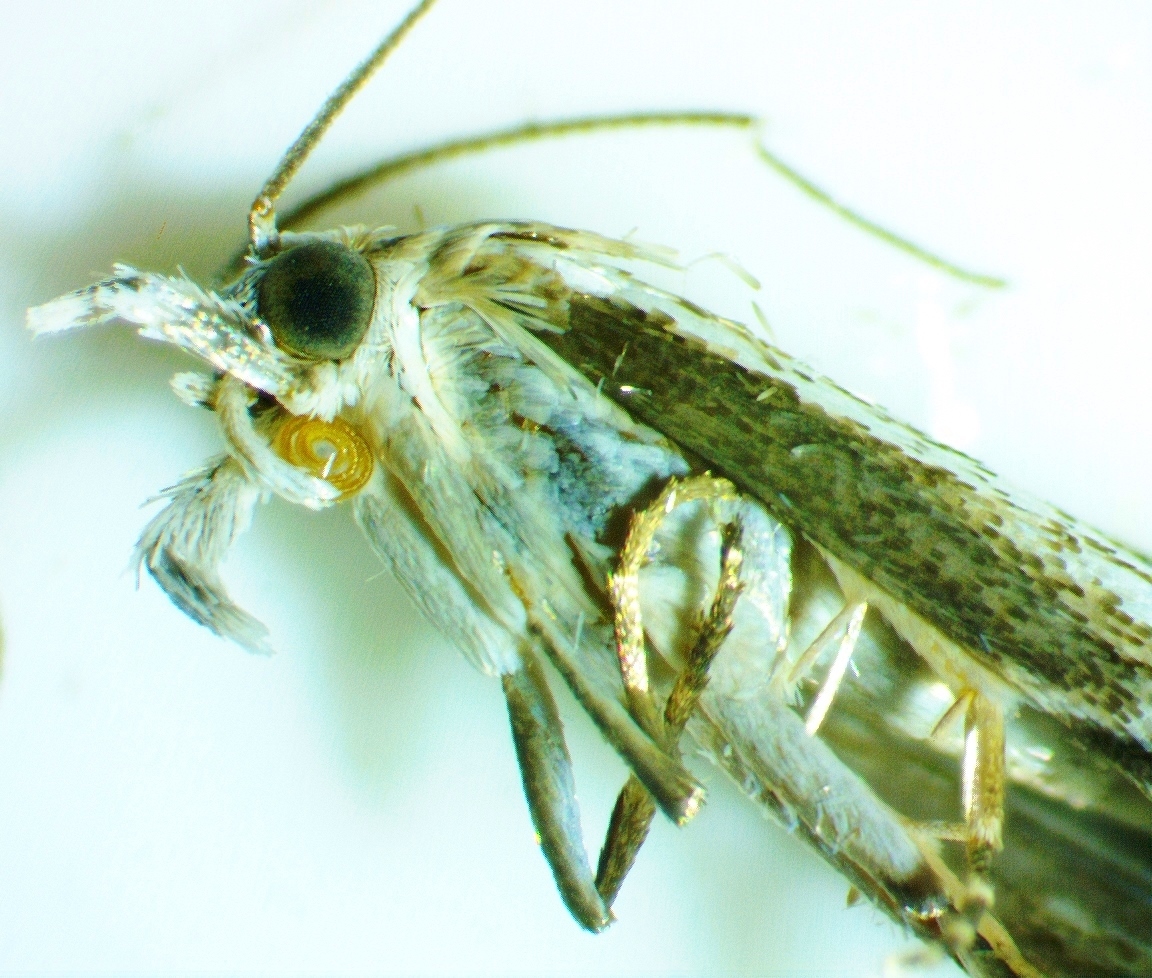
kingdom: Animalia
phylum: Arthropoda
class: Insecta
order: Lepidoptera
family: Crambidae
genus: Microcrambus
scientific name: Microcrambus immunellus
